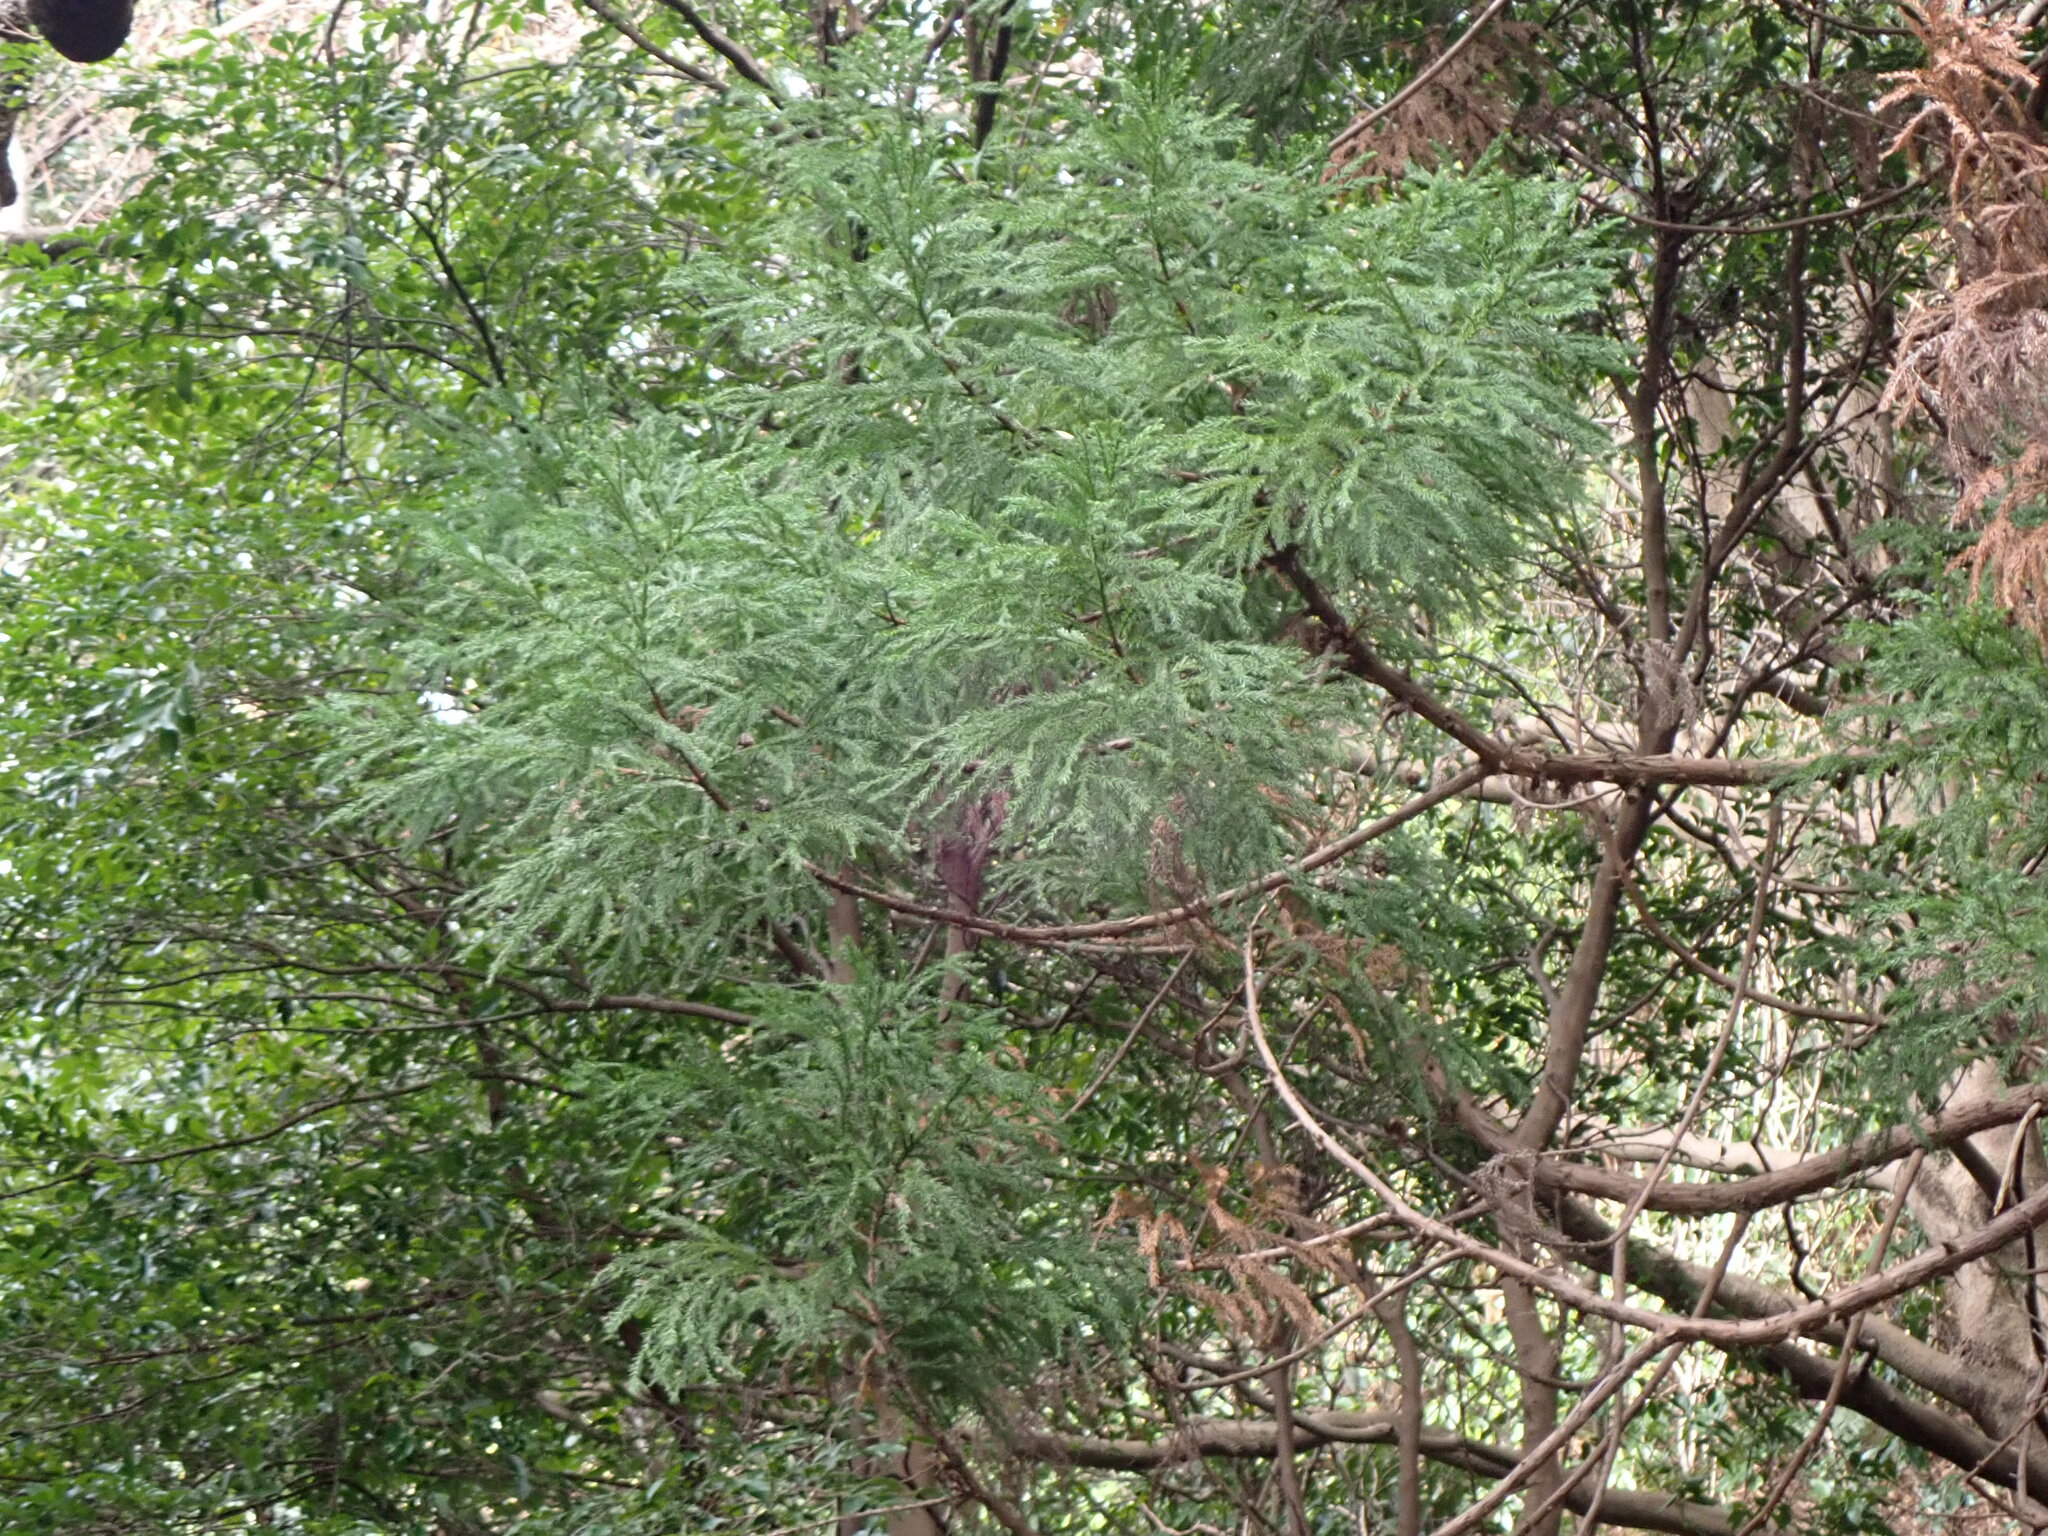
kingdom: Plantae
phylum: Tracheophyta
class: Pinopsida
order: Pinales
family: Cupressaceae
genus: Cryptomeria
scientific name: Cryptomeria japonica
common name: Japanese cedar
